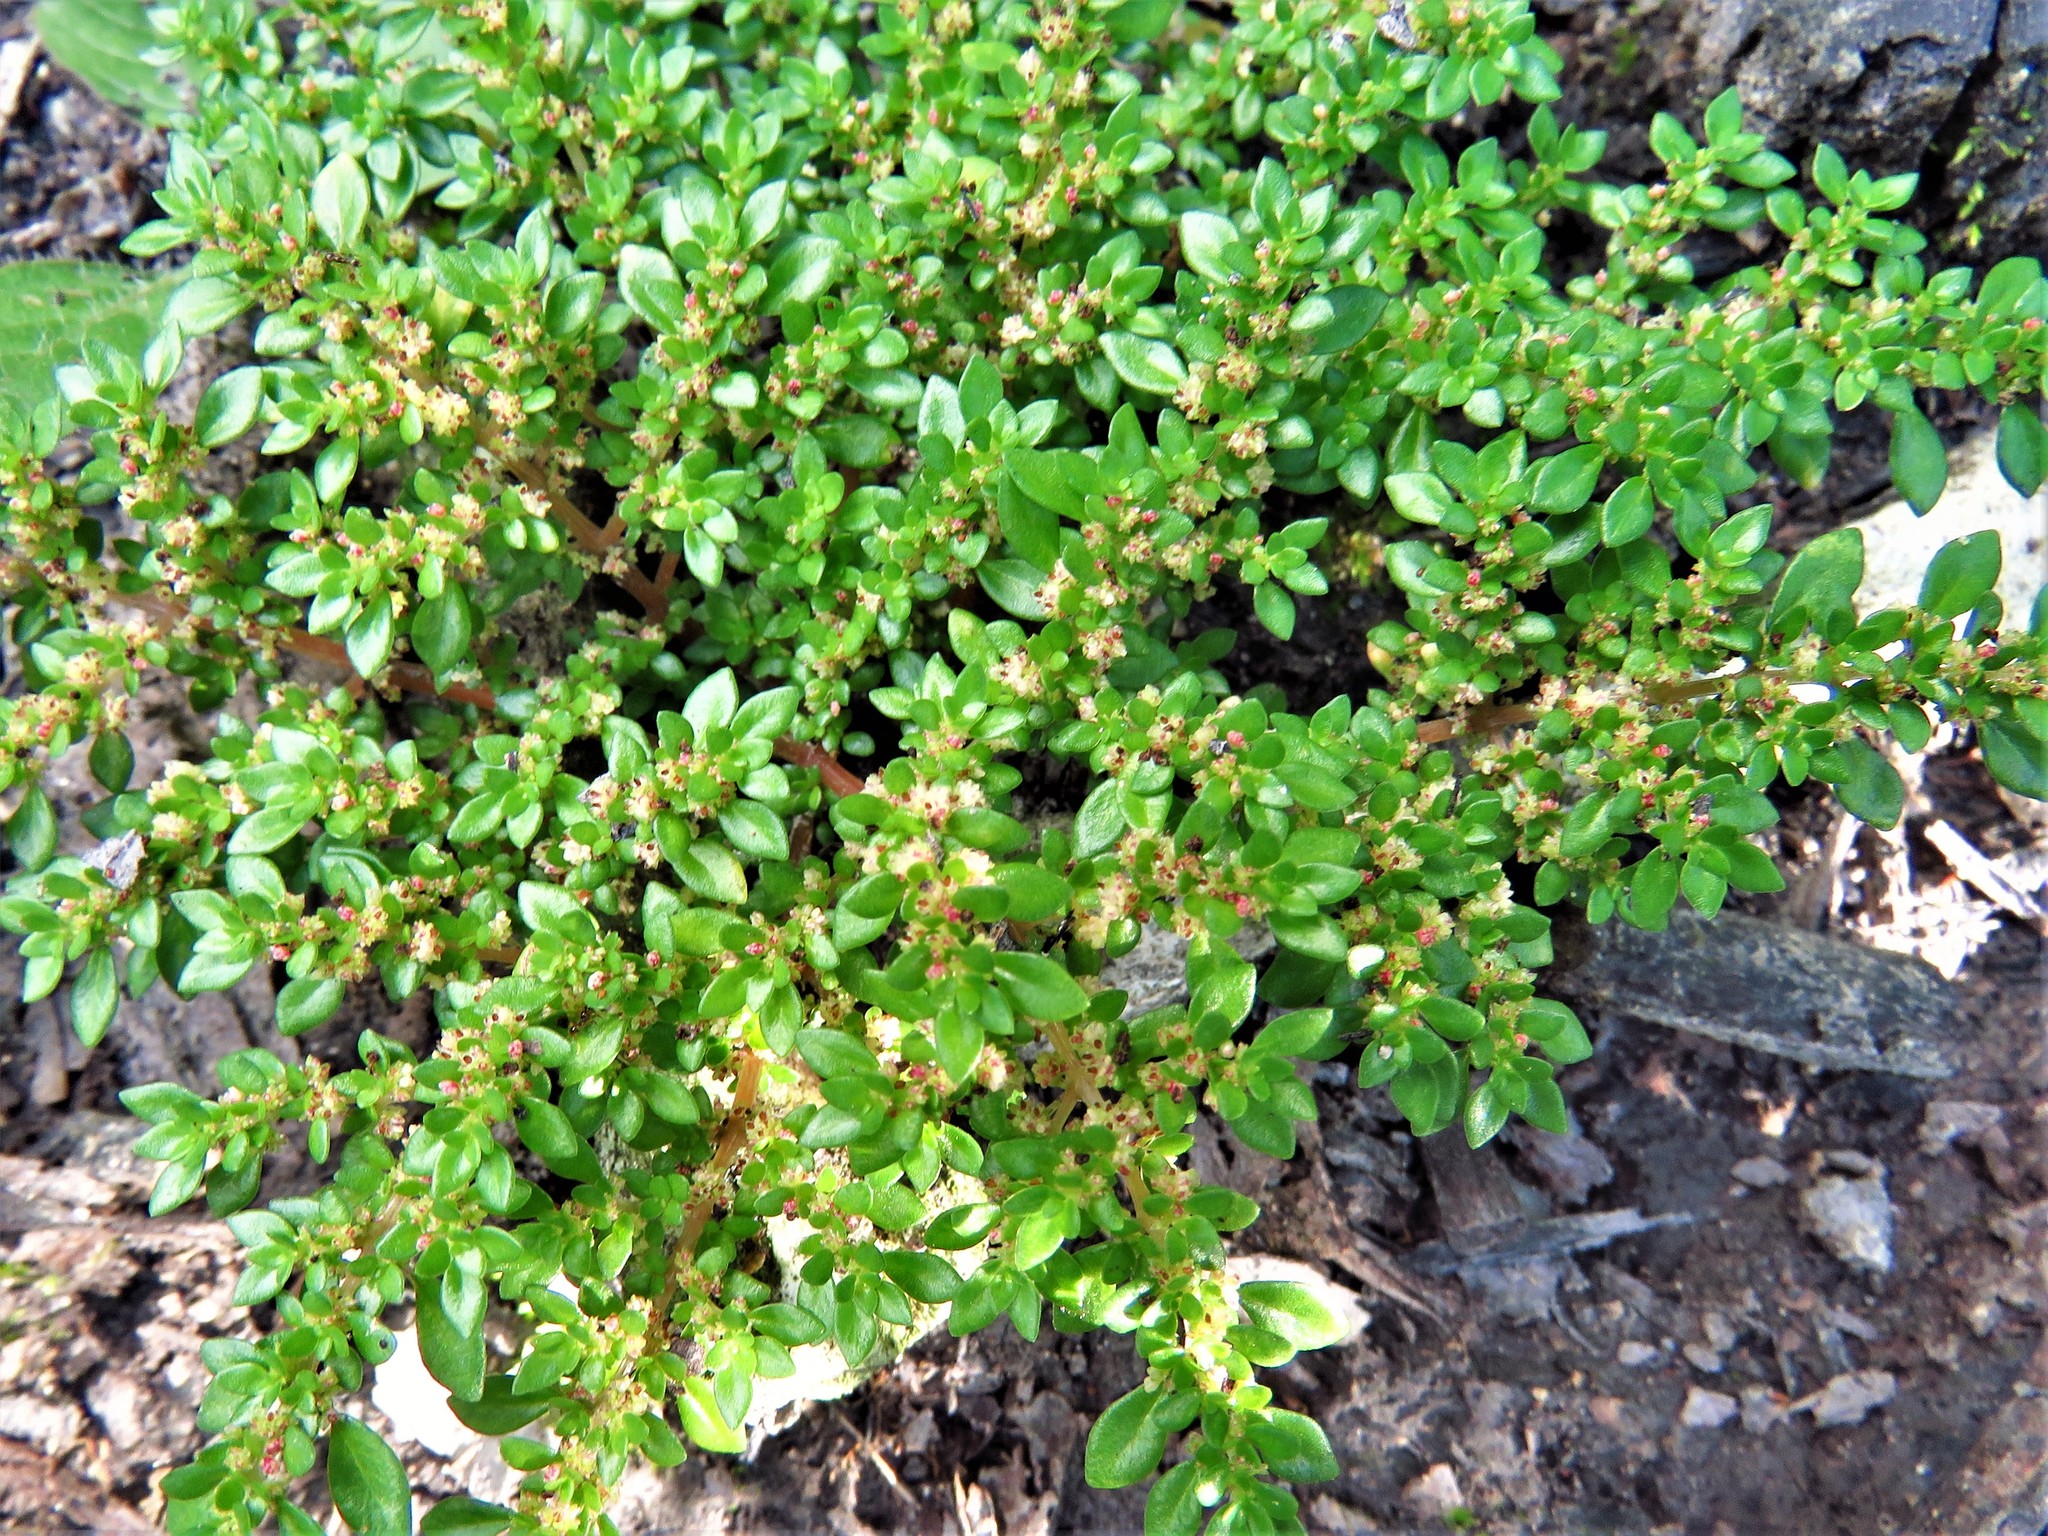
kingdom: Plantae
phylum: Tracheophyta
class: Magnoliopsida
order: Rosales
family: Urticaceae
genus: Pilea
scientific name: Pilea microphylla
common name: Artillery-plant
